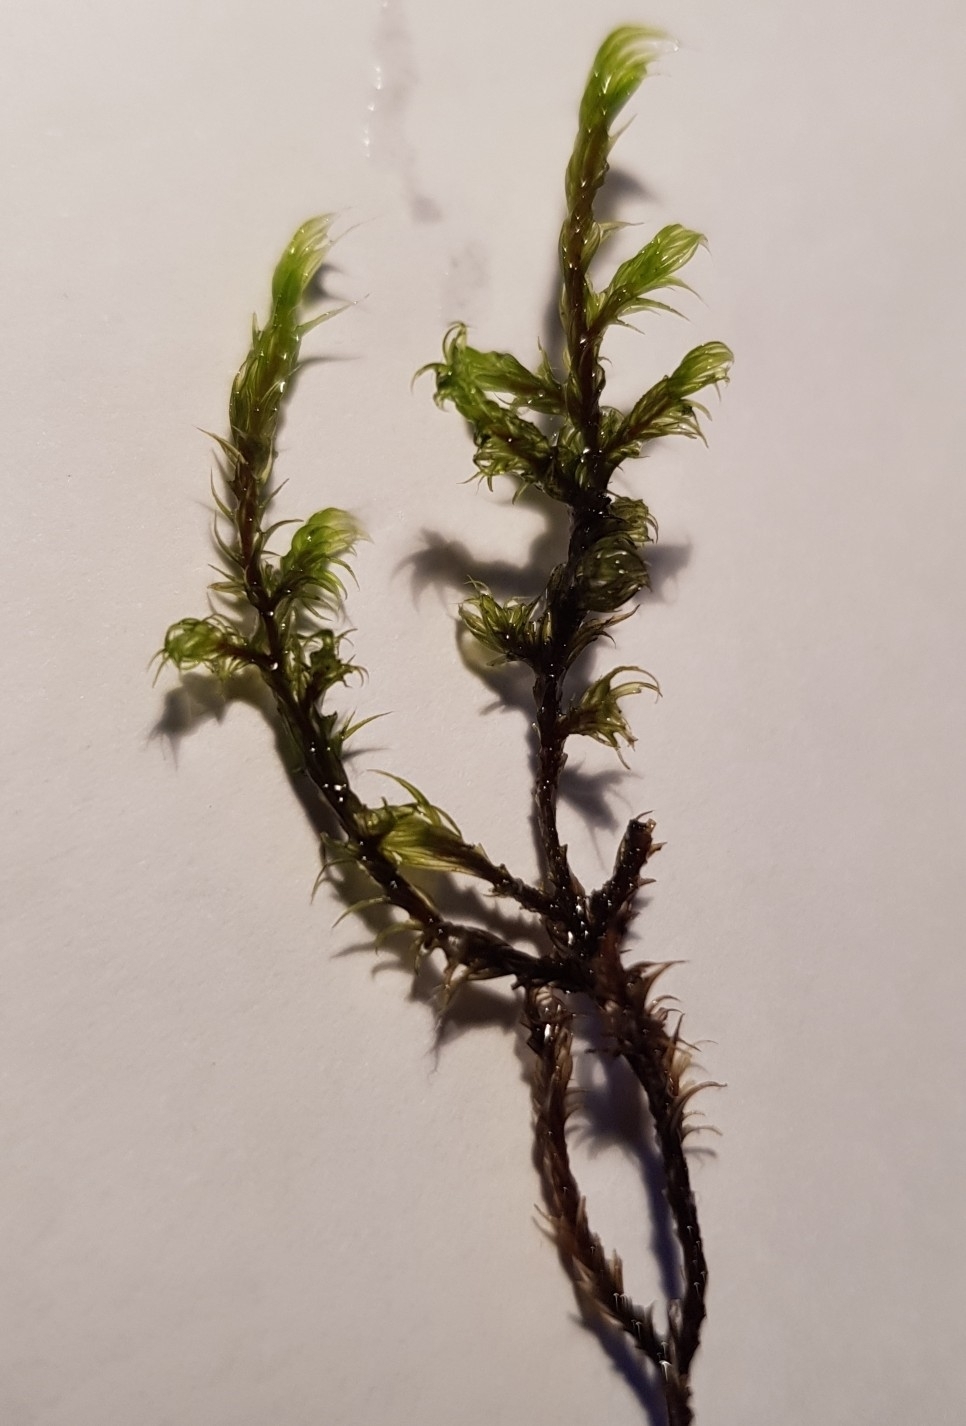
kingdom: Plantae
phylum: Bryophyta
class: Bryopsida
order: Grimmiales
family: Grimmiaceae
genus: Racomitrium
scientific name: Racomitrium lanuginosum
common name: Hoary rock moss
